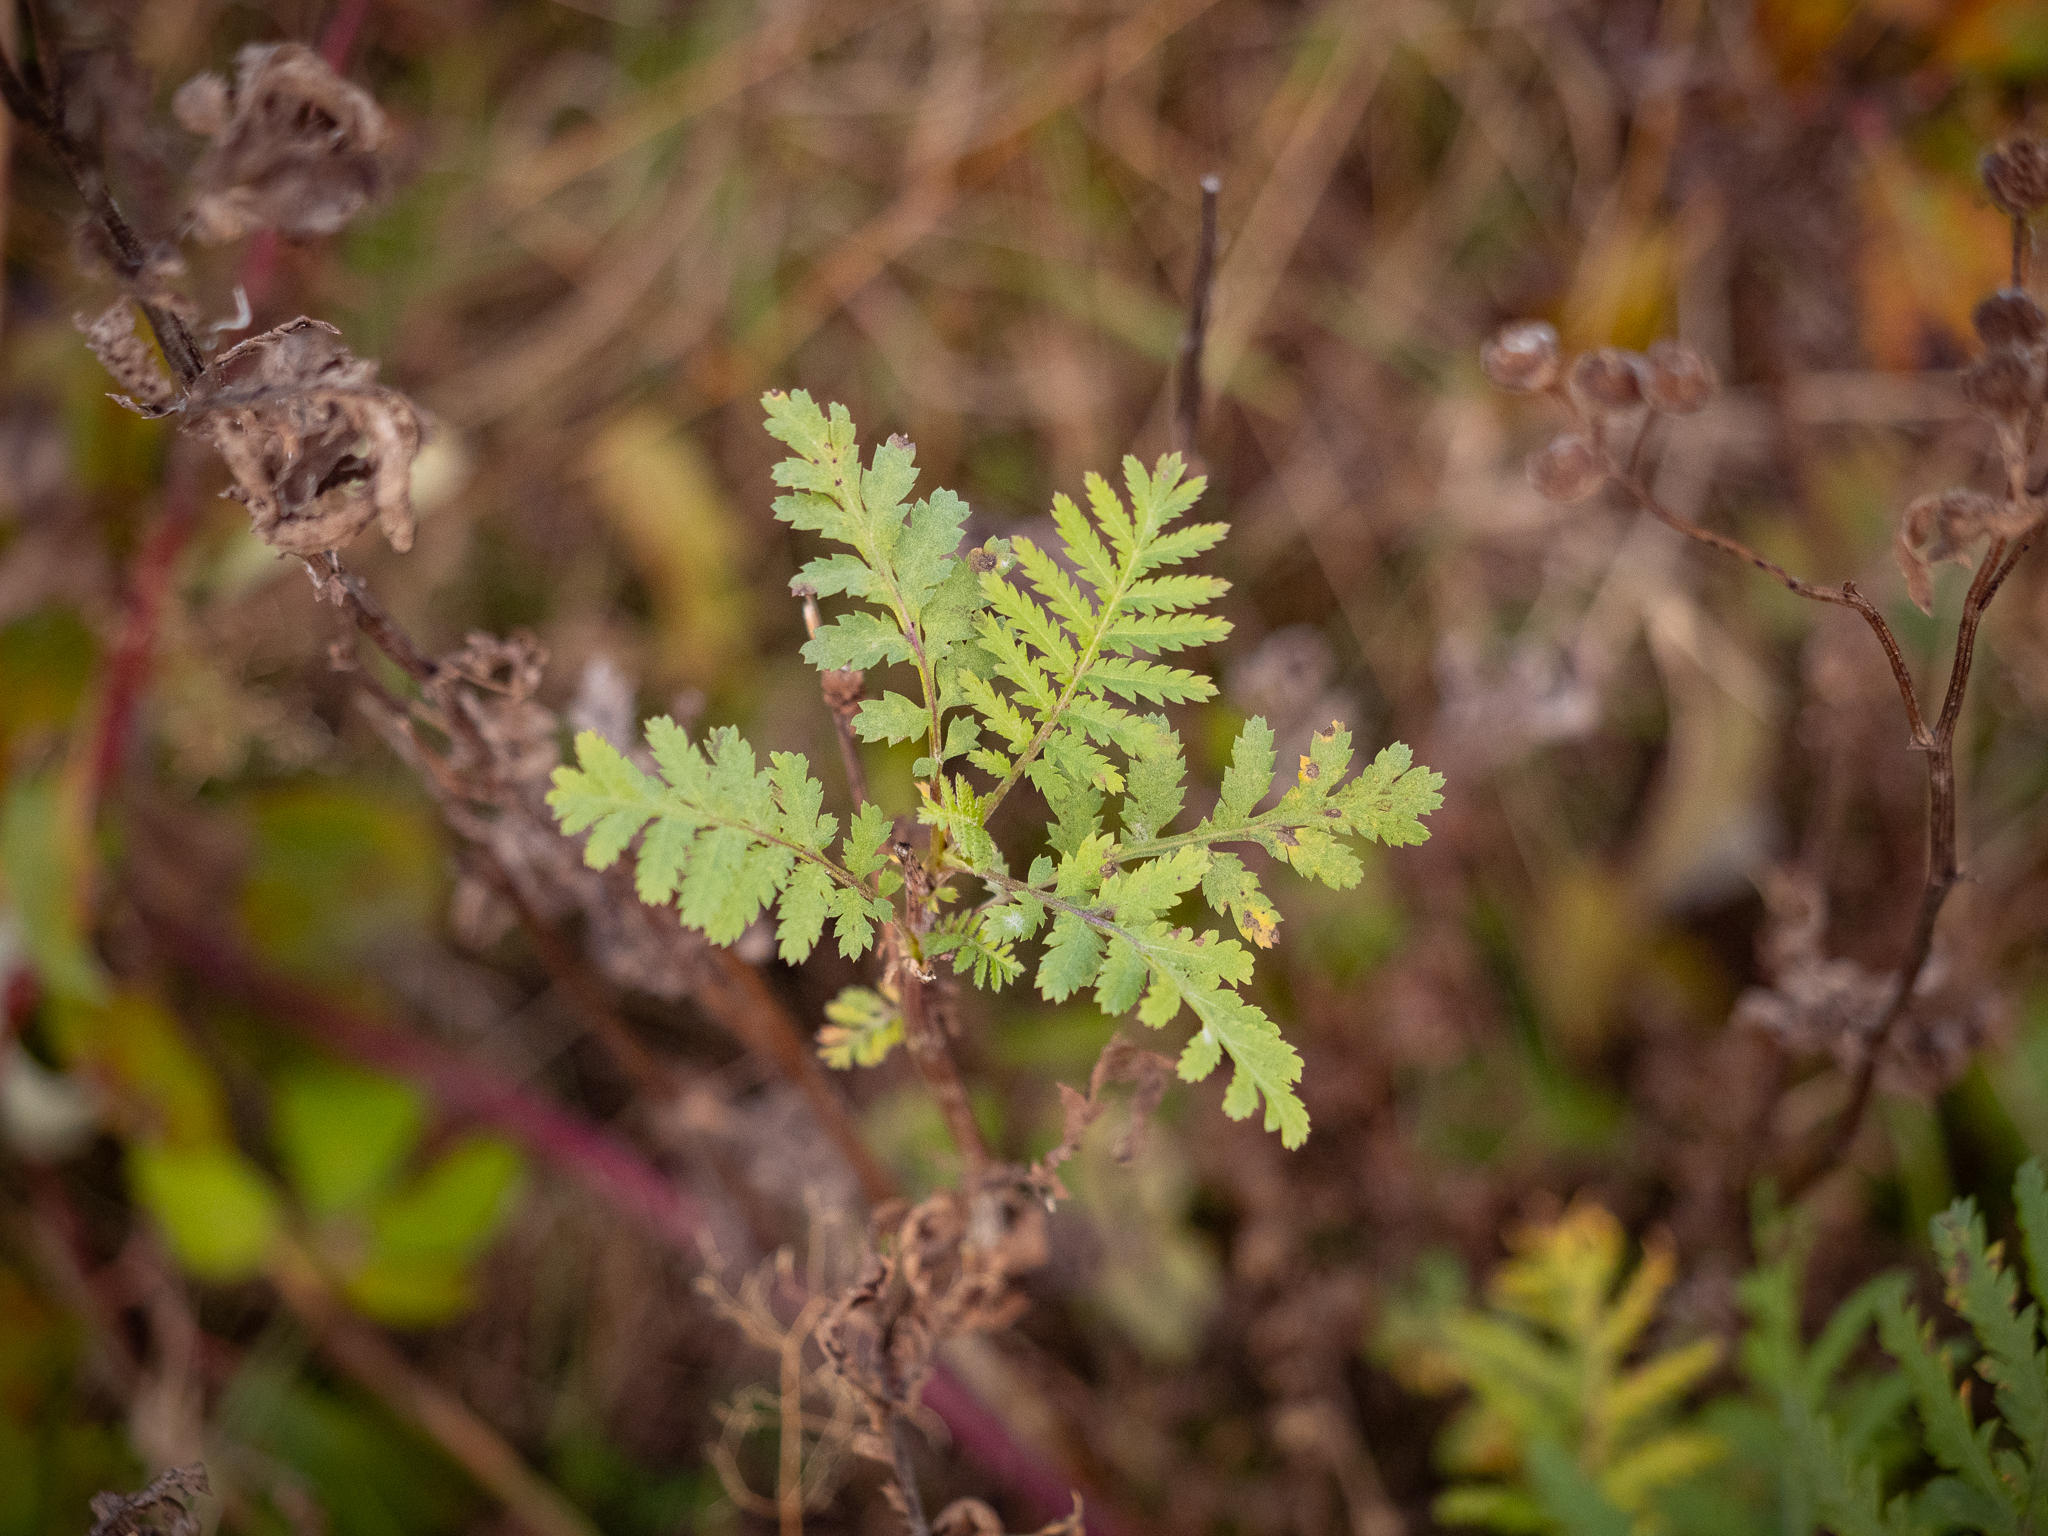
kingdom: Plantae
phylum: Tracheophyta
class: Magnoliopsida
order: Asterales
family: Asteraceae
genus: Tanacetum
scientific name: Tanacetum vulgare
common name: Common tansy
